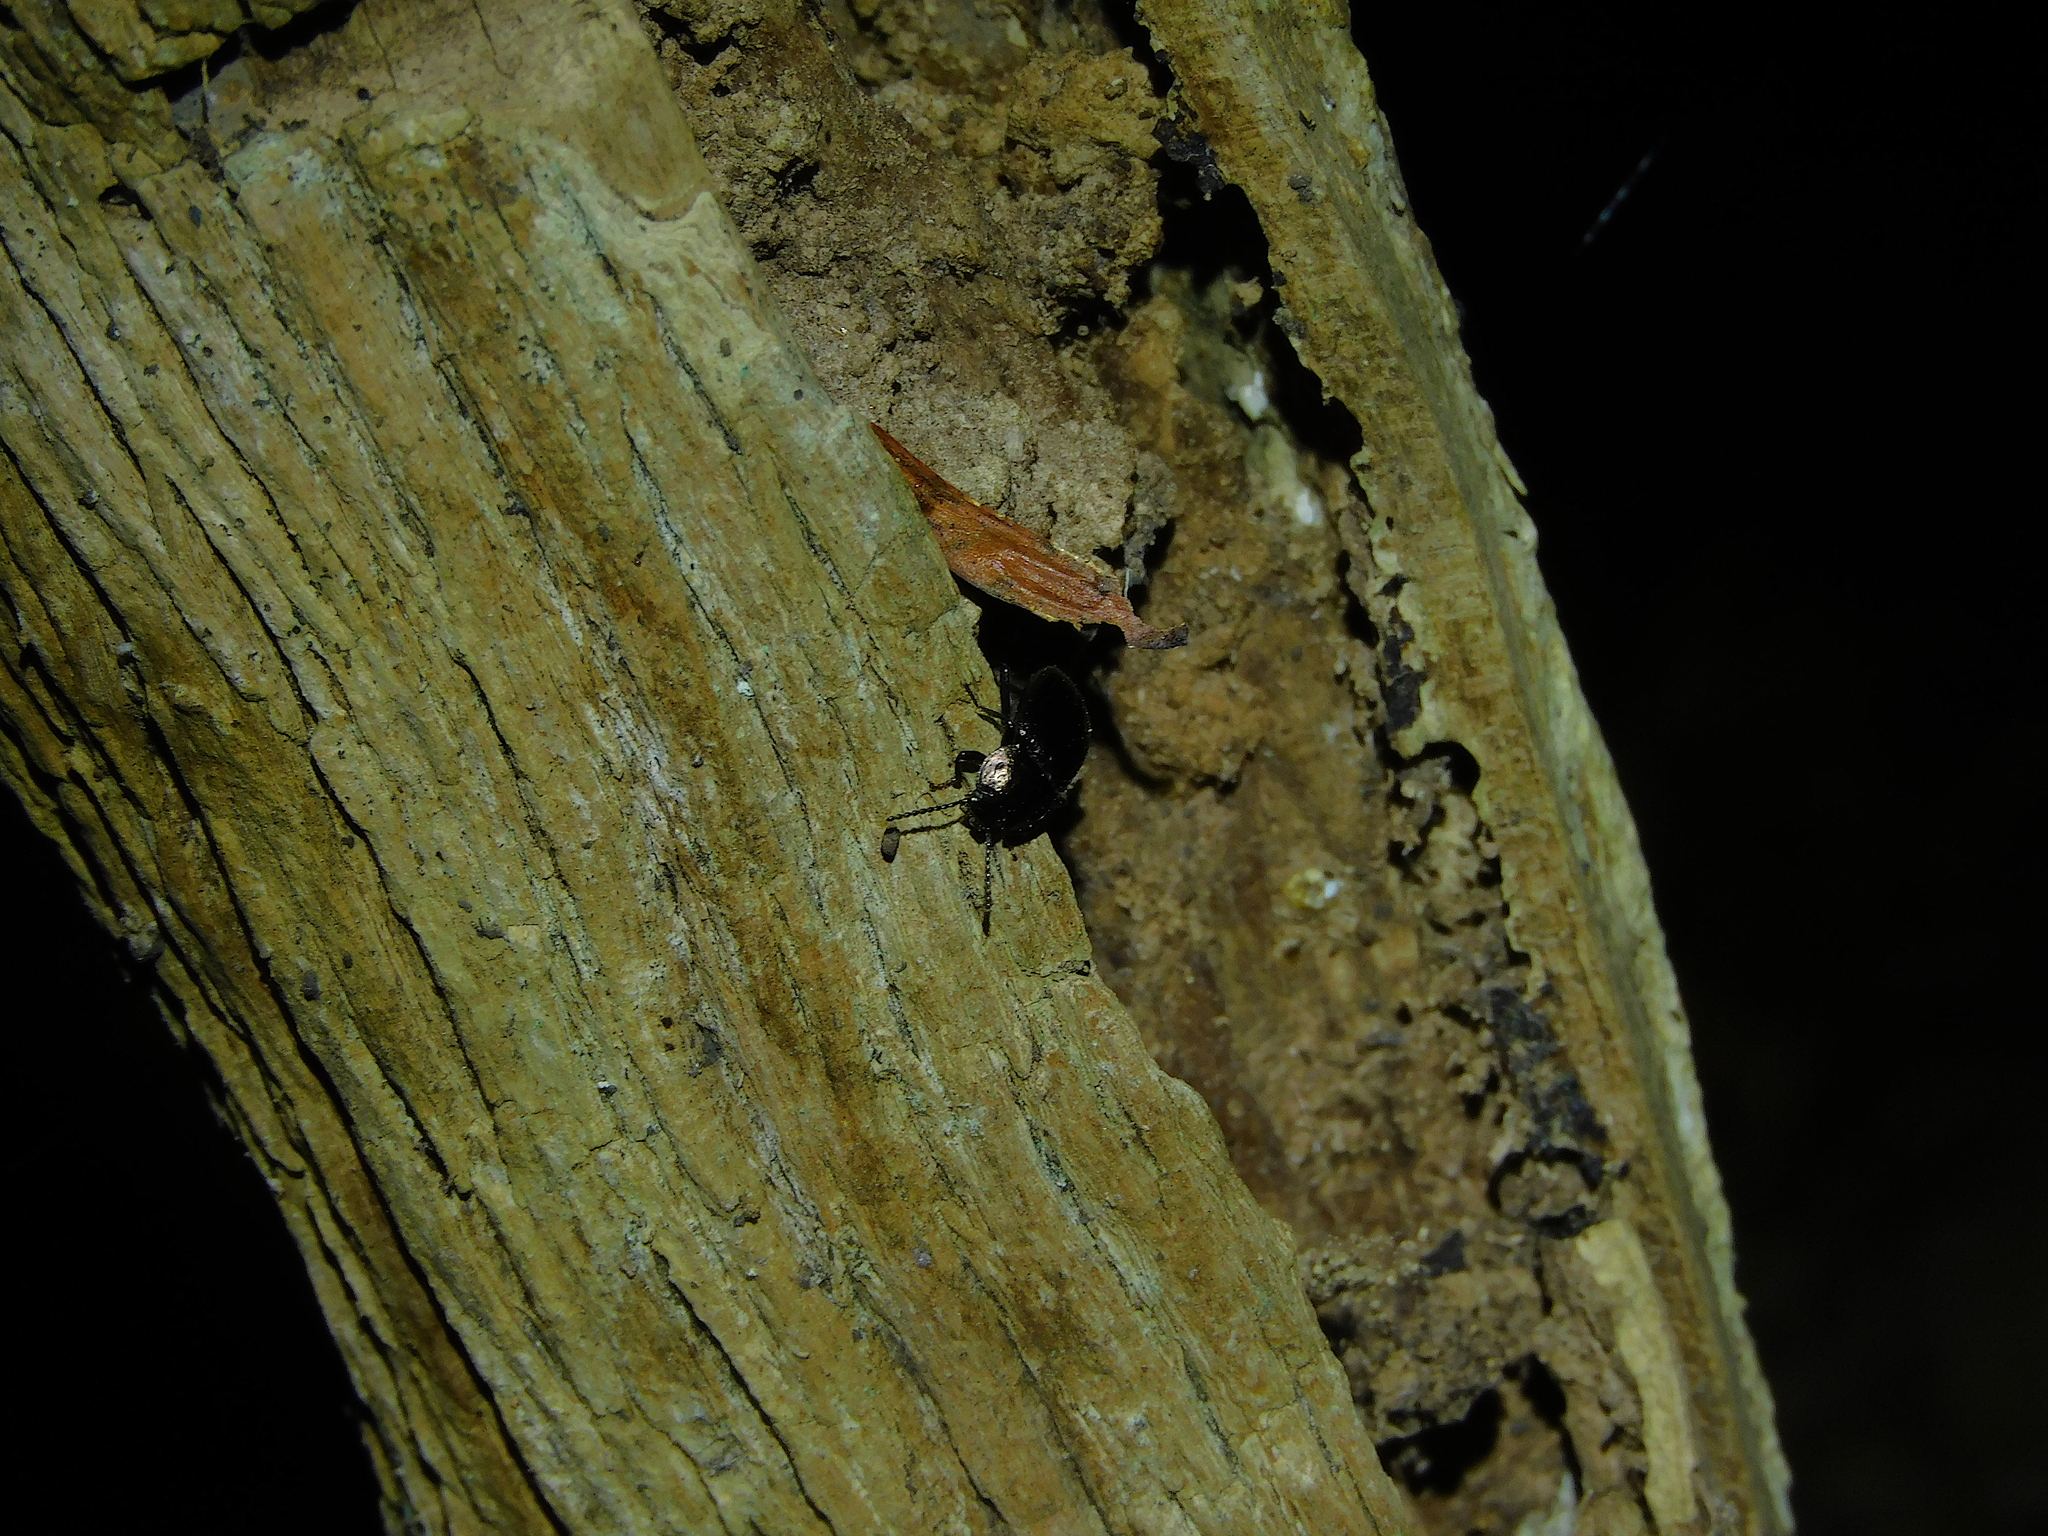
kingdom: Animalia
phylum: Arthropoda
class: Insecta
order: Coleoptera
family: Tenebrionidae
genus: Adelium
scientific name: Adelium abbreviatum
